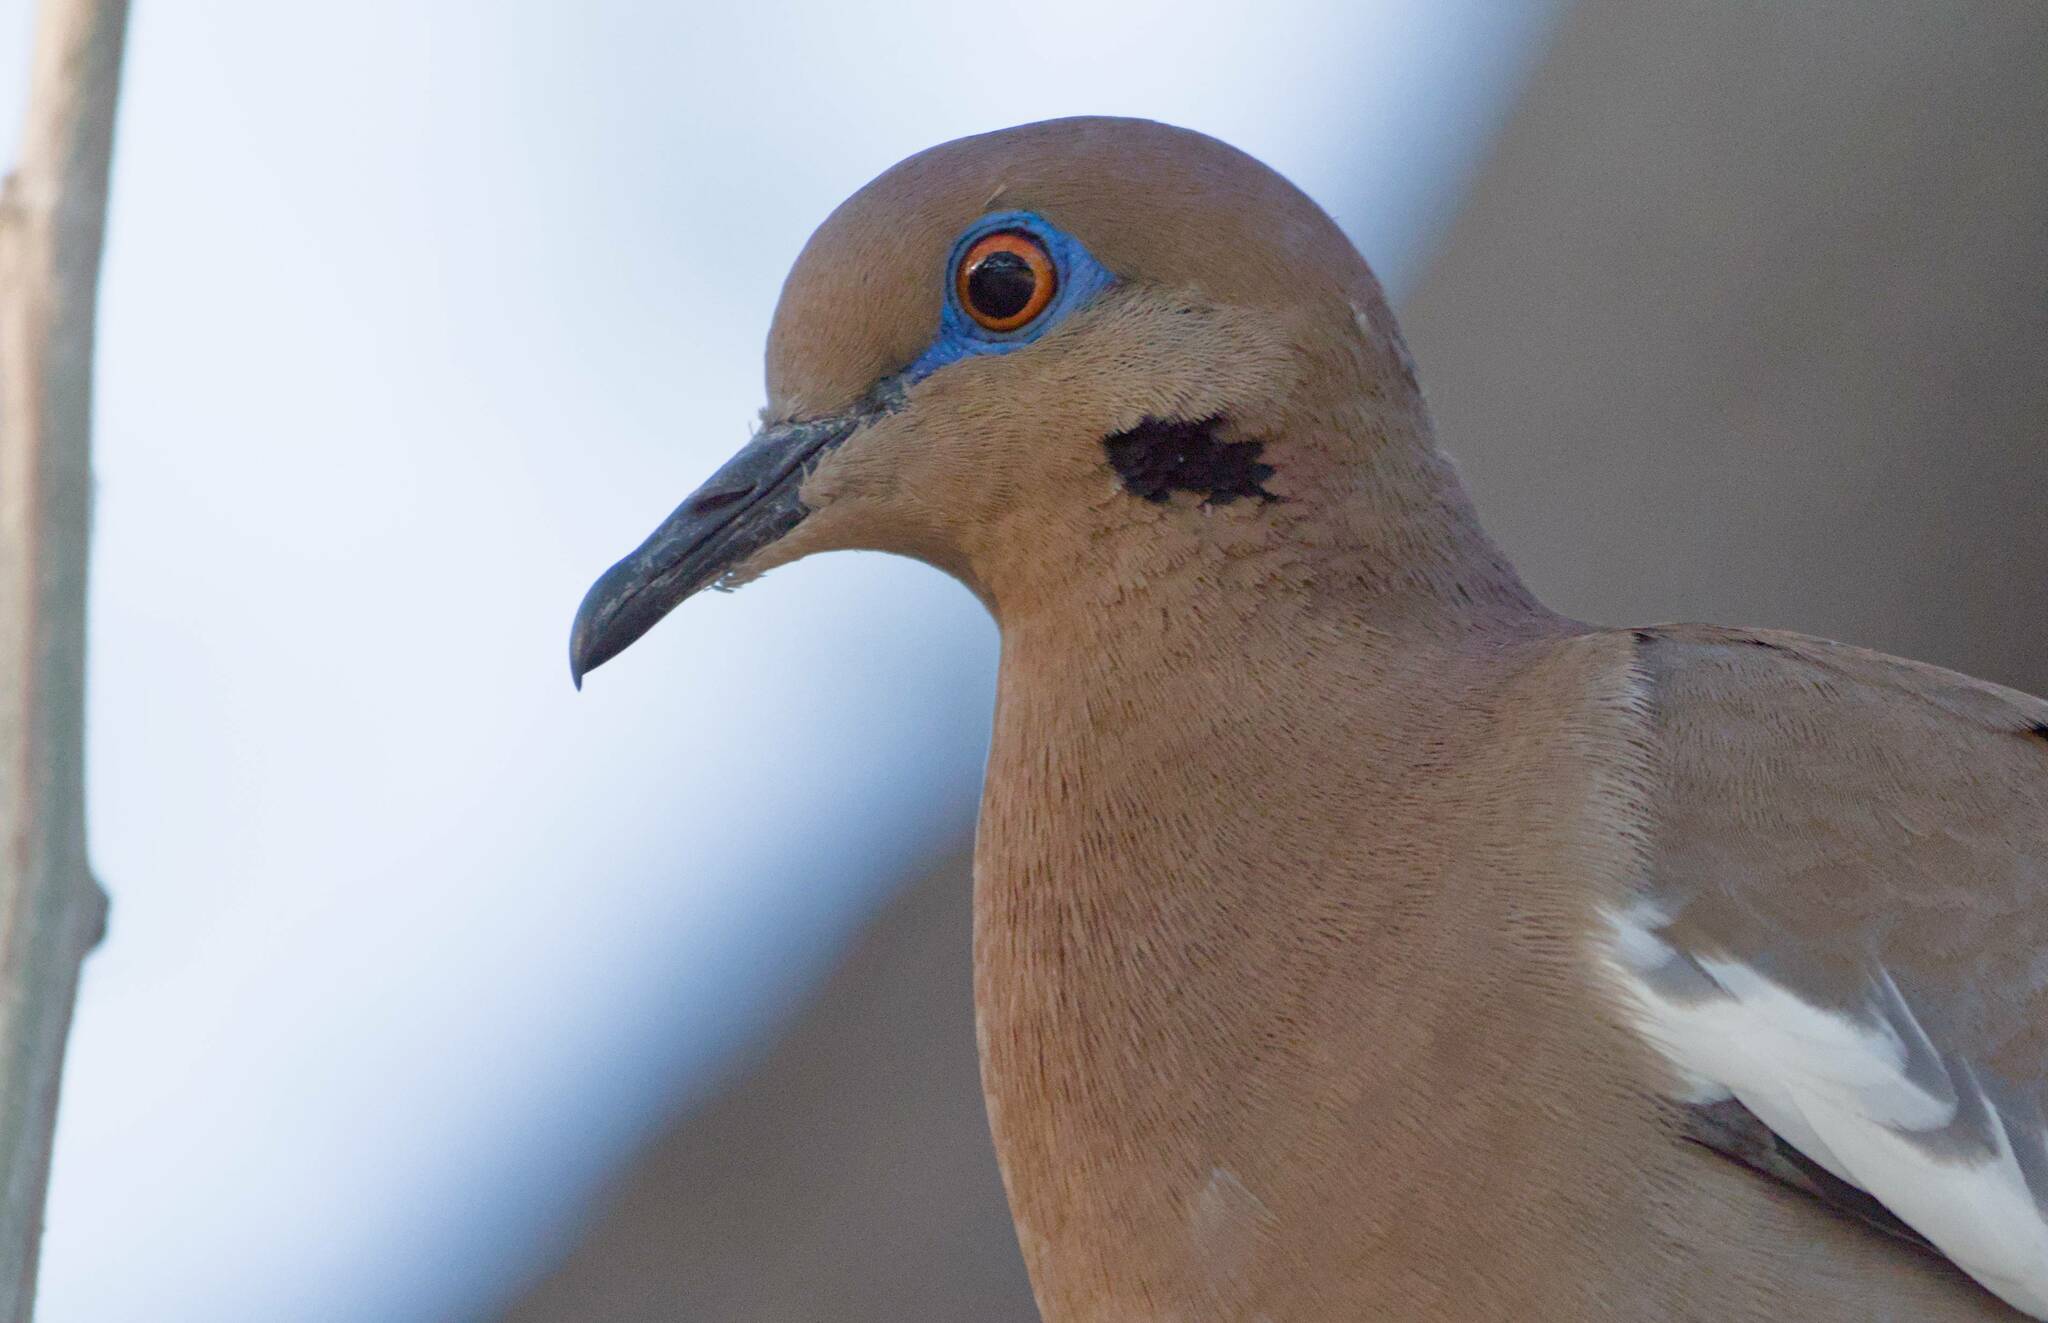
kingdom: Animalia
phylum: Chordata
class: Aves
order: Columbiformes
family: Columbidae
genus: Zenaida
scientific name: Zenaida asiatica
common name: White-winged dove
